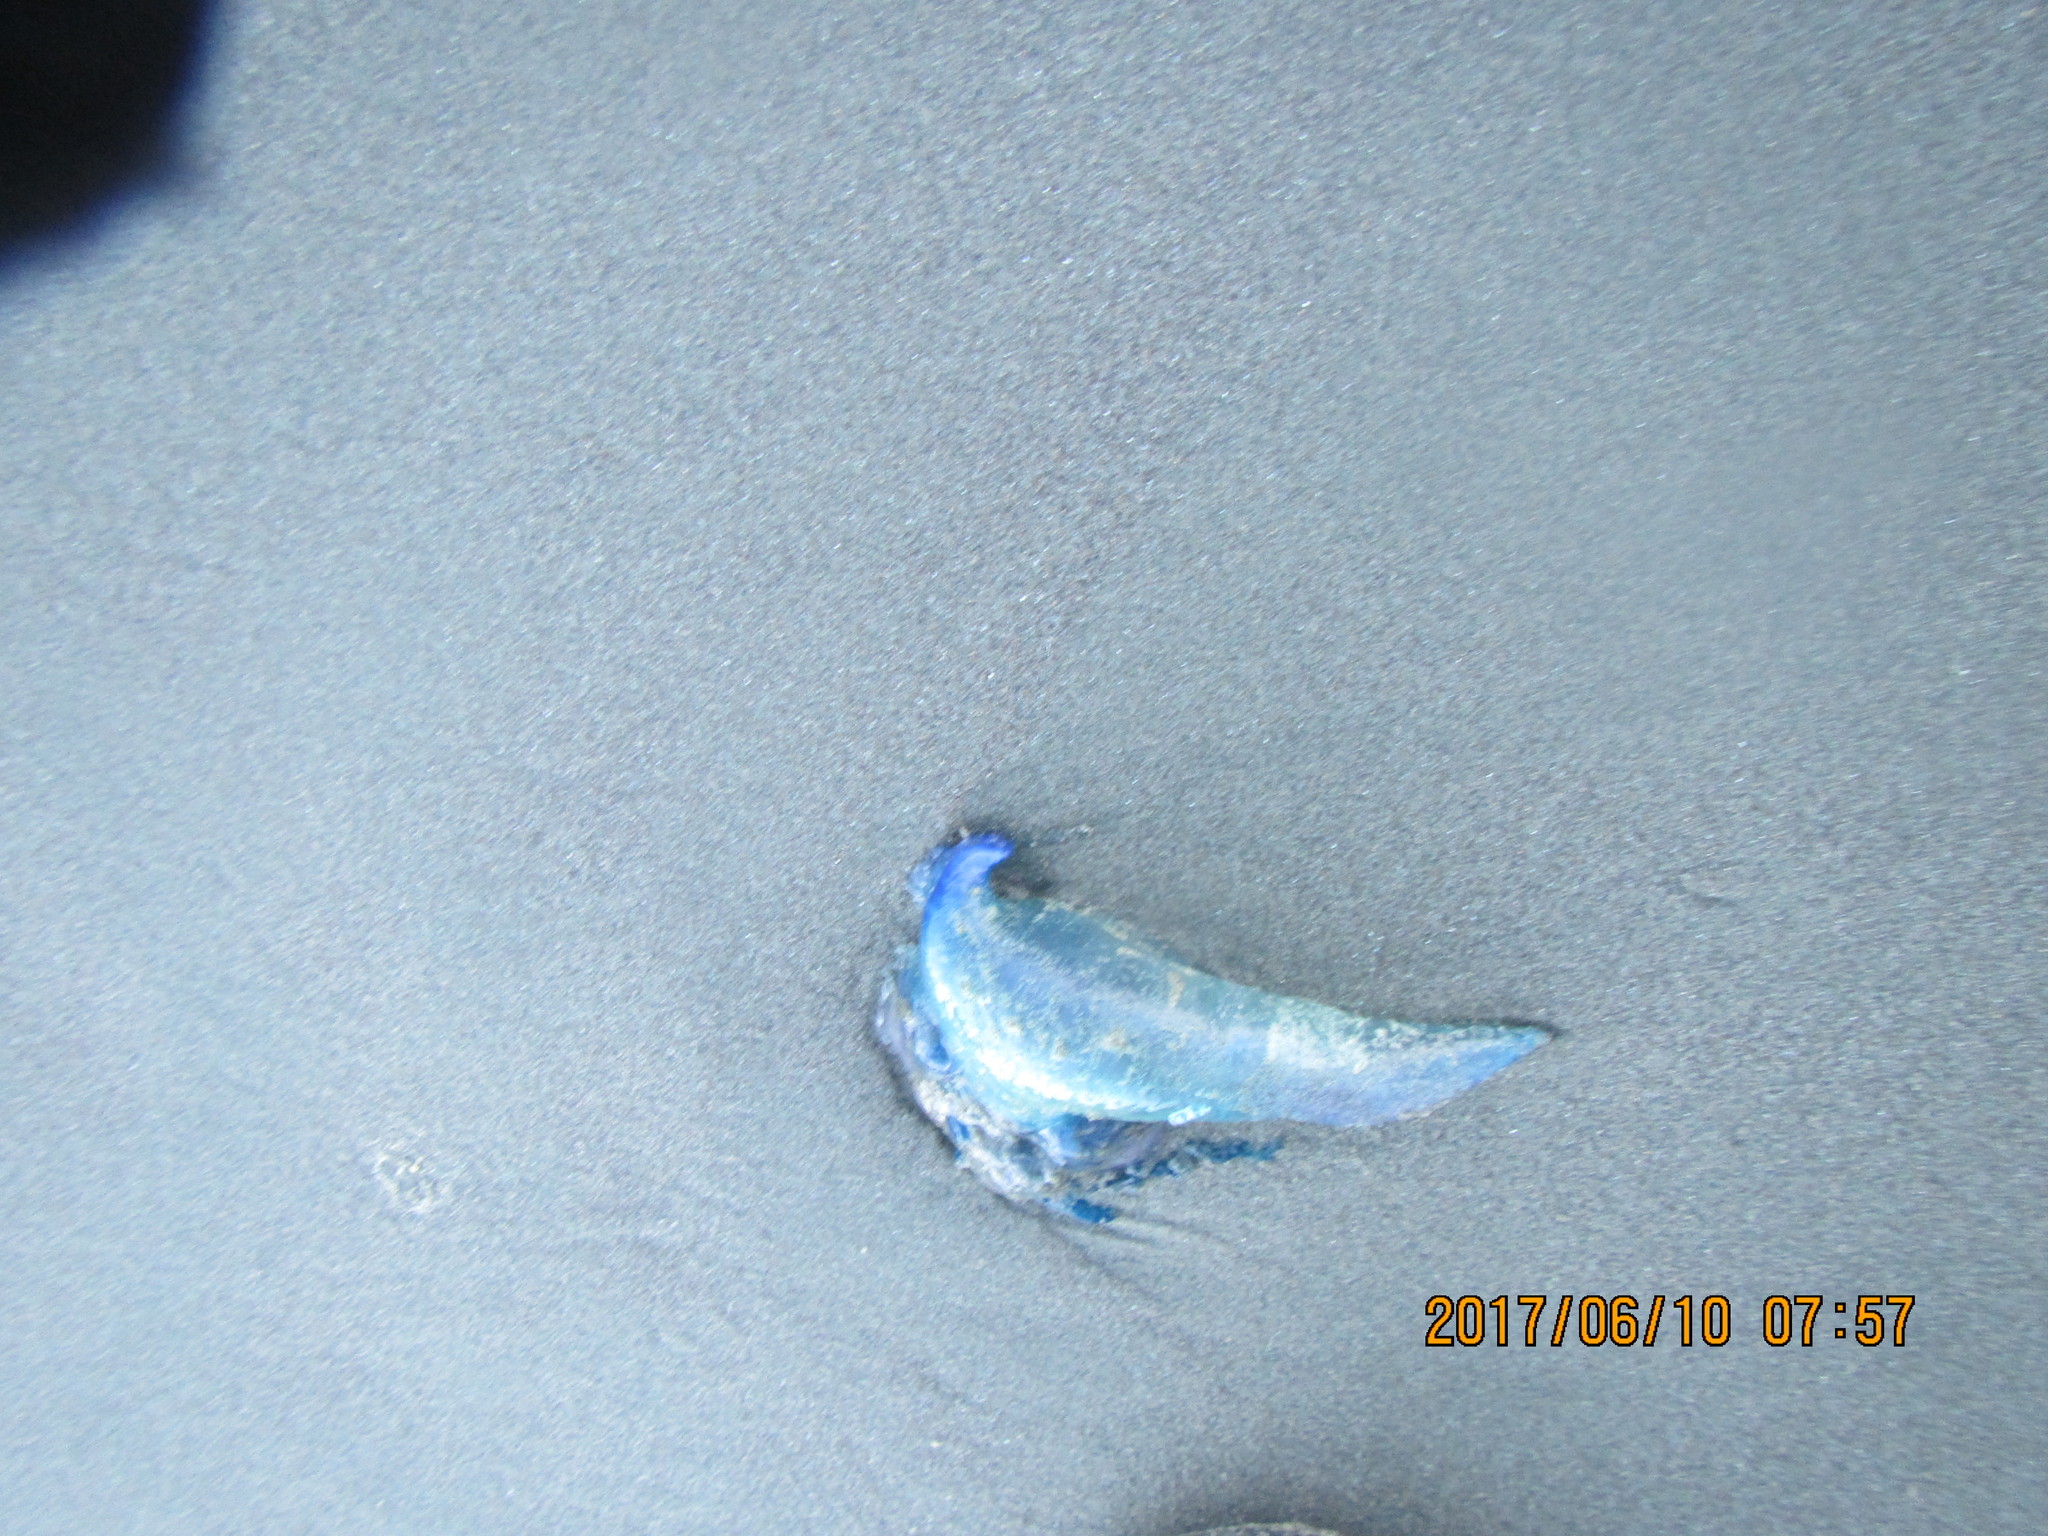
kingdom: Animalia
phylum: Cnidaria
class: Hydrozoa
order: Siphonophorae
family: Physaliidae
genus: Physalia
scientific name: Physalia physalis
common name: Portuguese man-of-war
